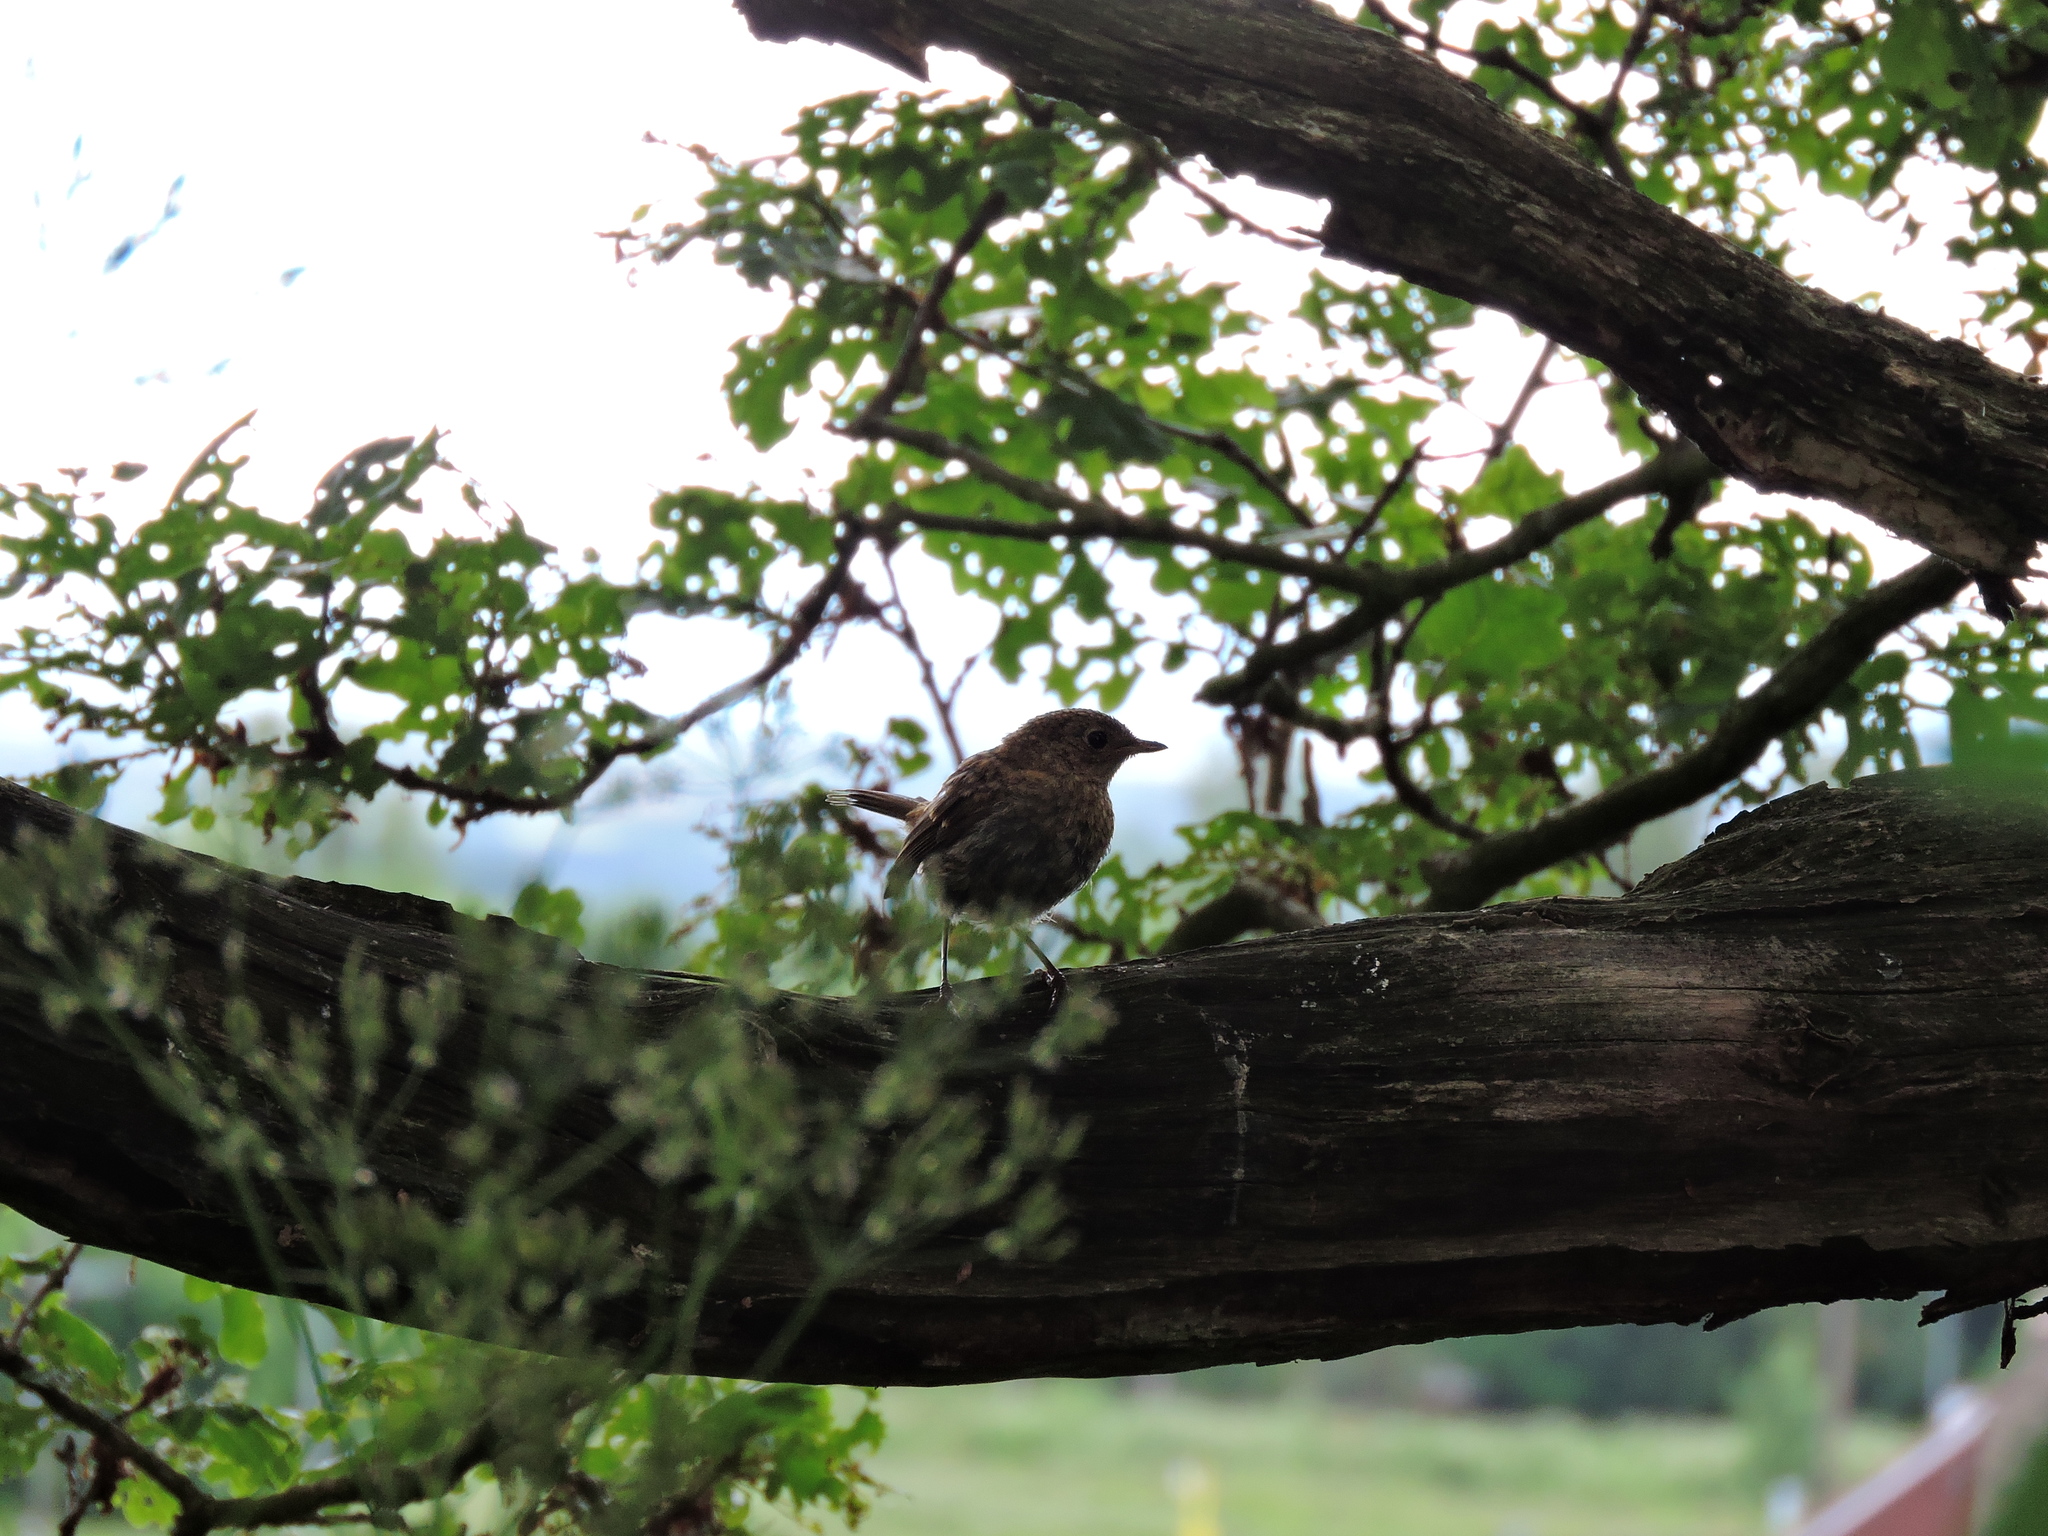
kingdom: Animalia
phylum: Chordata
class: Aves
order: Passeriformes
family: Muscicapidae
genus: Erithacus
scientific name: Erithacus rubecula
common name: European robin
